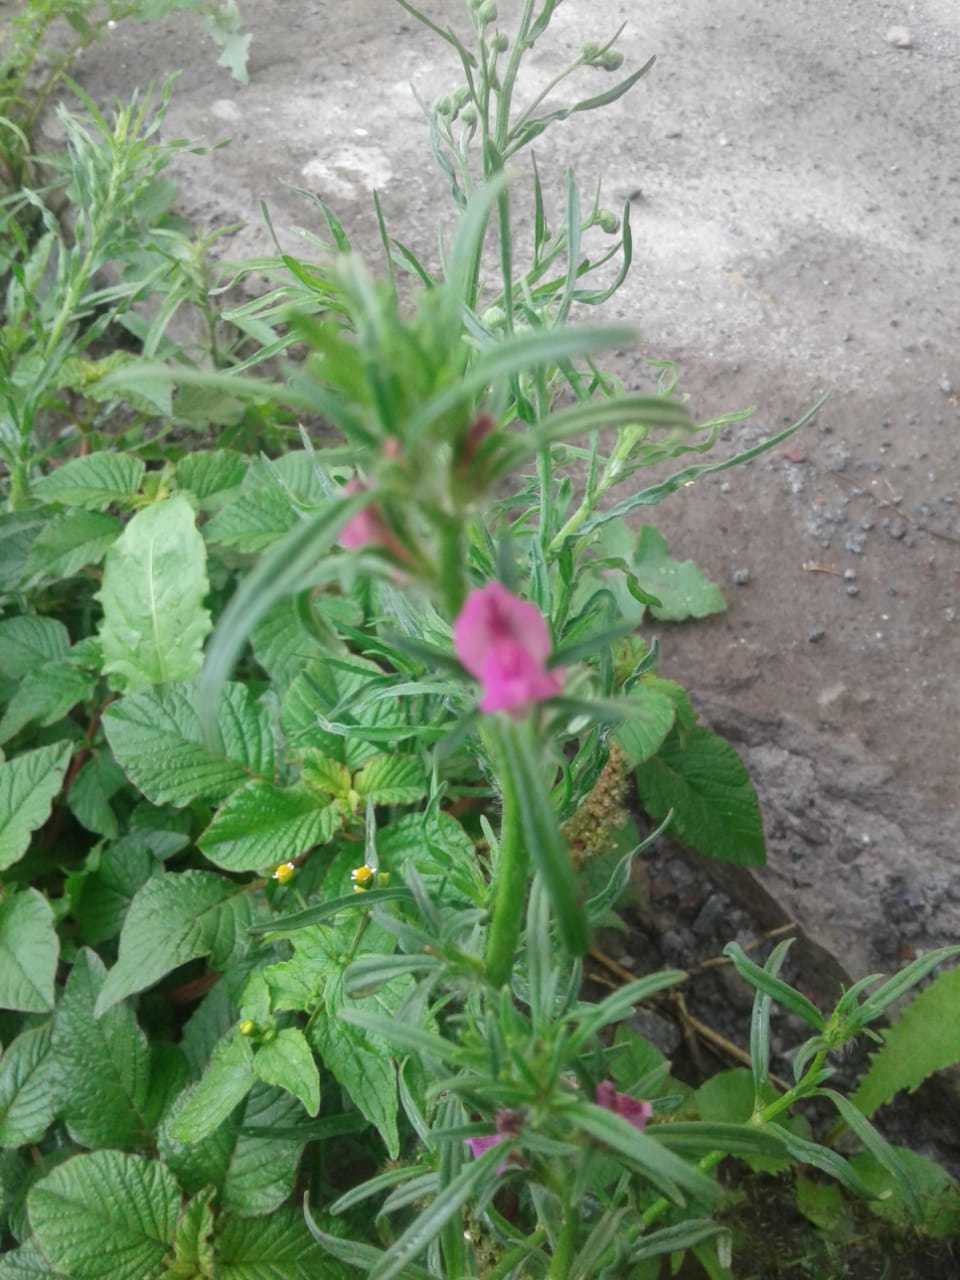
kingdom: Plantae
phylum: Tracheophyta
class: Magnoliopsida
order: Lamiales
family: Plantaginaceae
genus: Misopates
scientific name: Misopates orontium
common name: Weasel's-snout
